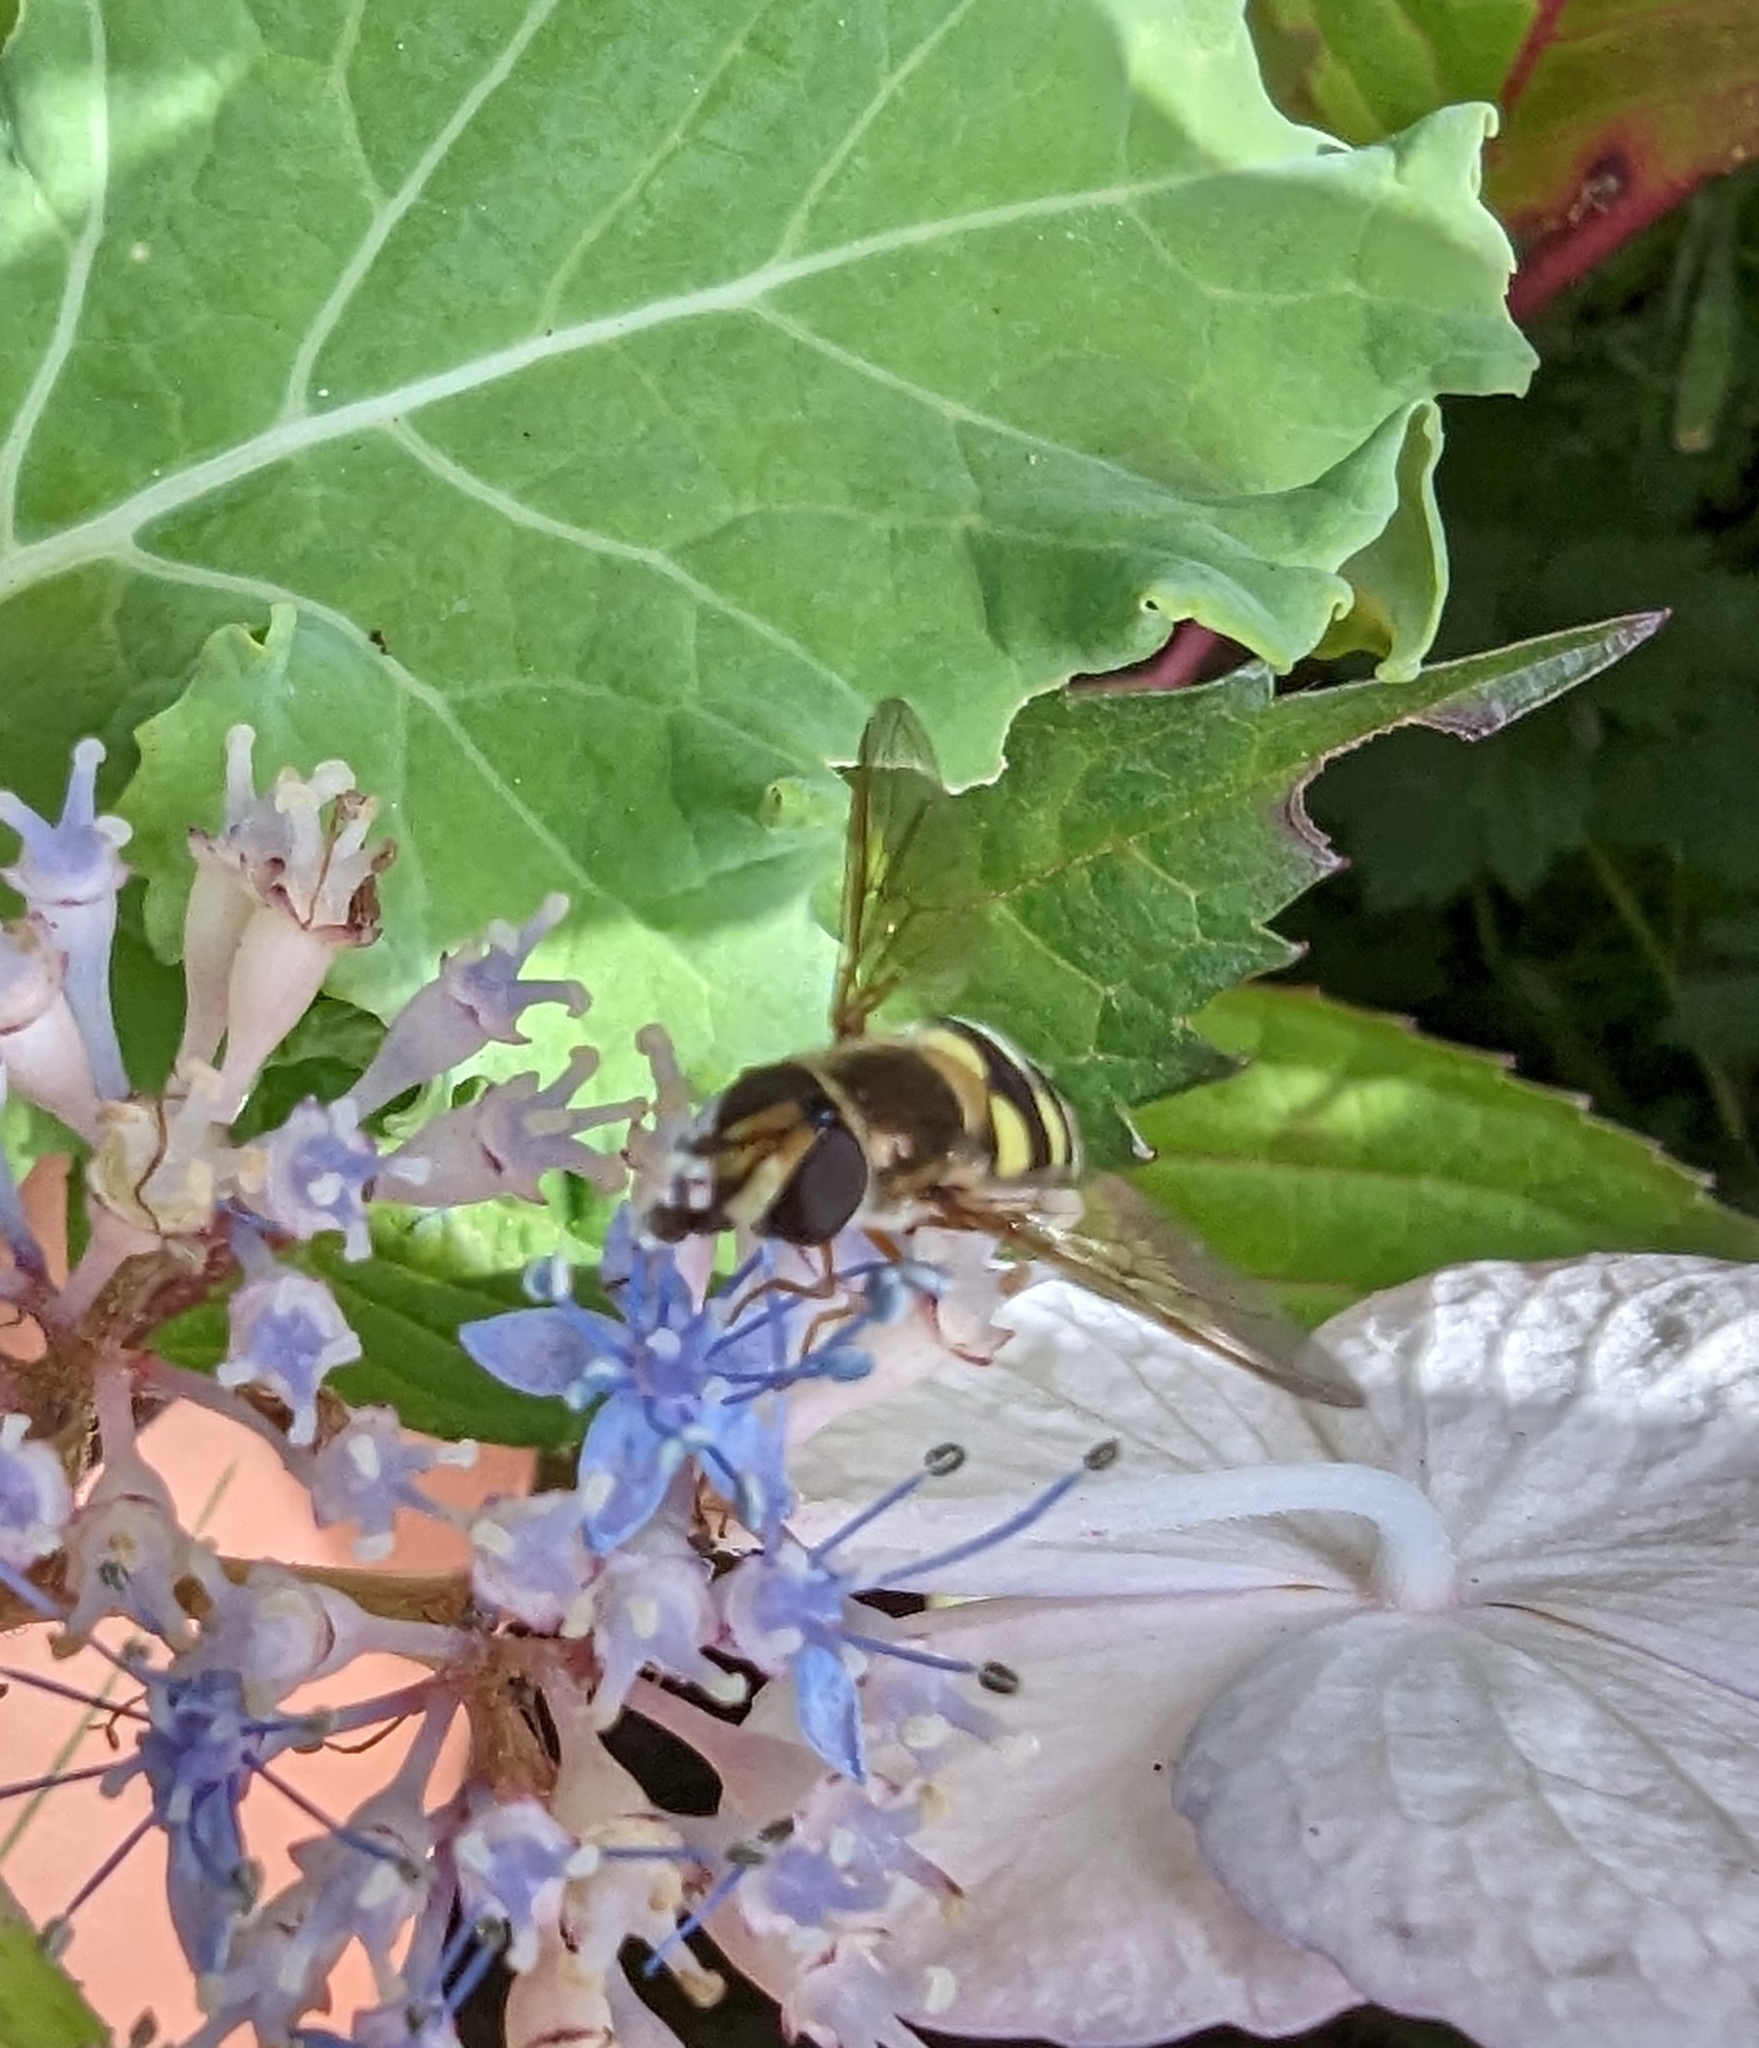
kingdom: Animalia
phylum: Arthropoda
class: Insecta
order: Diptera
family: Syrphidae
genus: Eupeodes
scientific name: Eupeodes fumipennis
